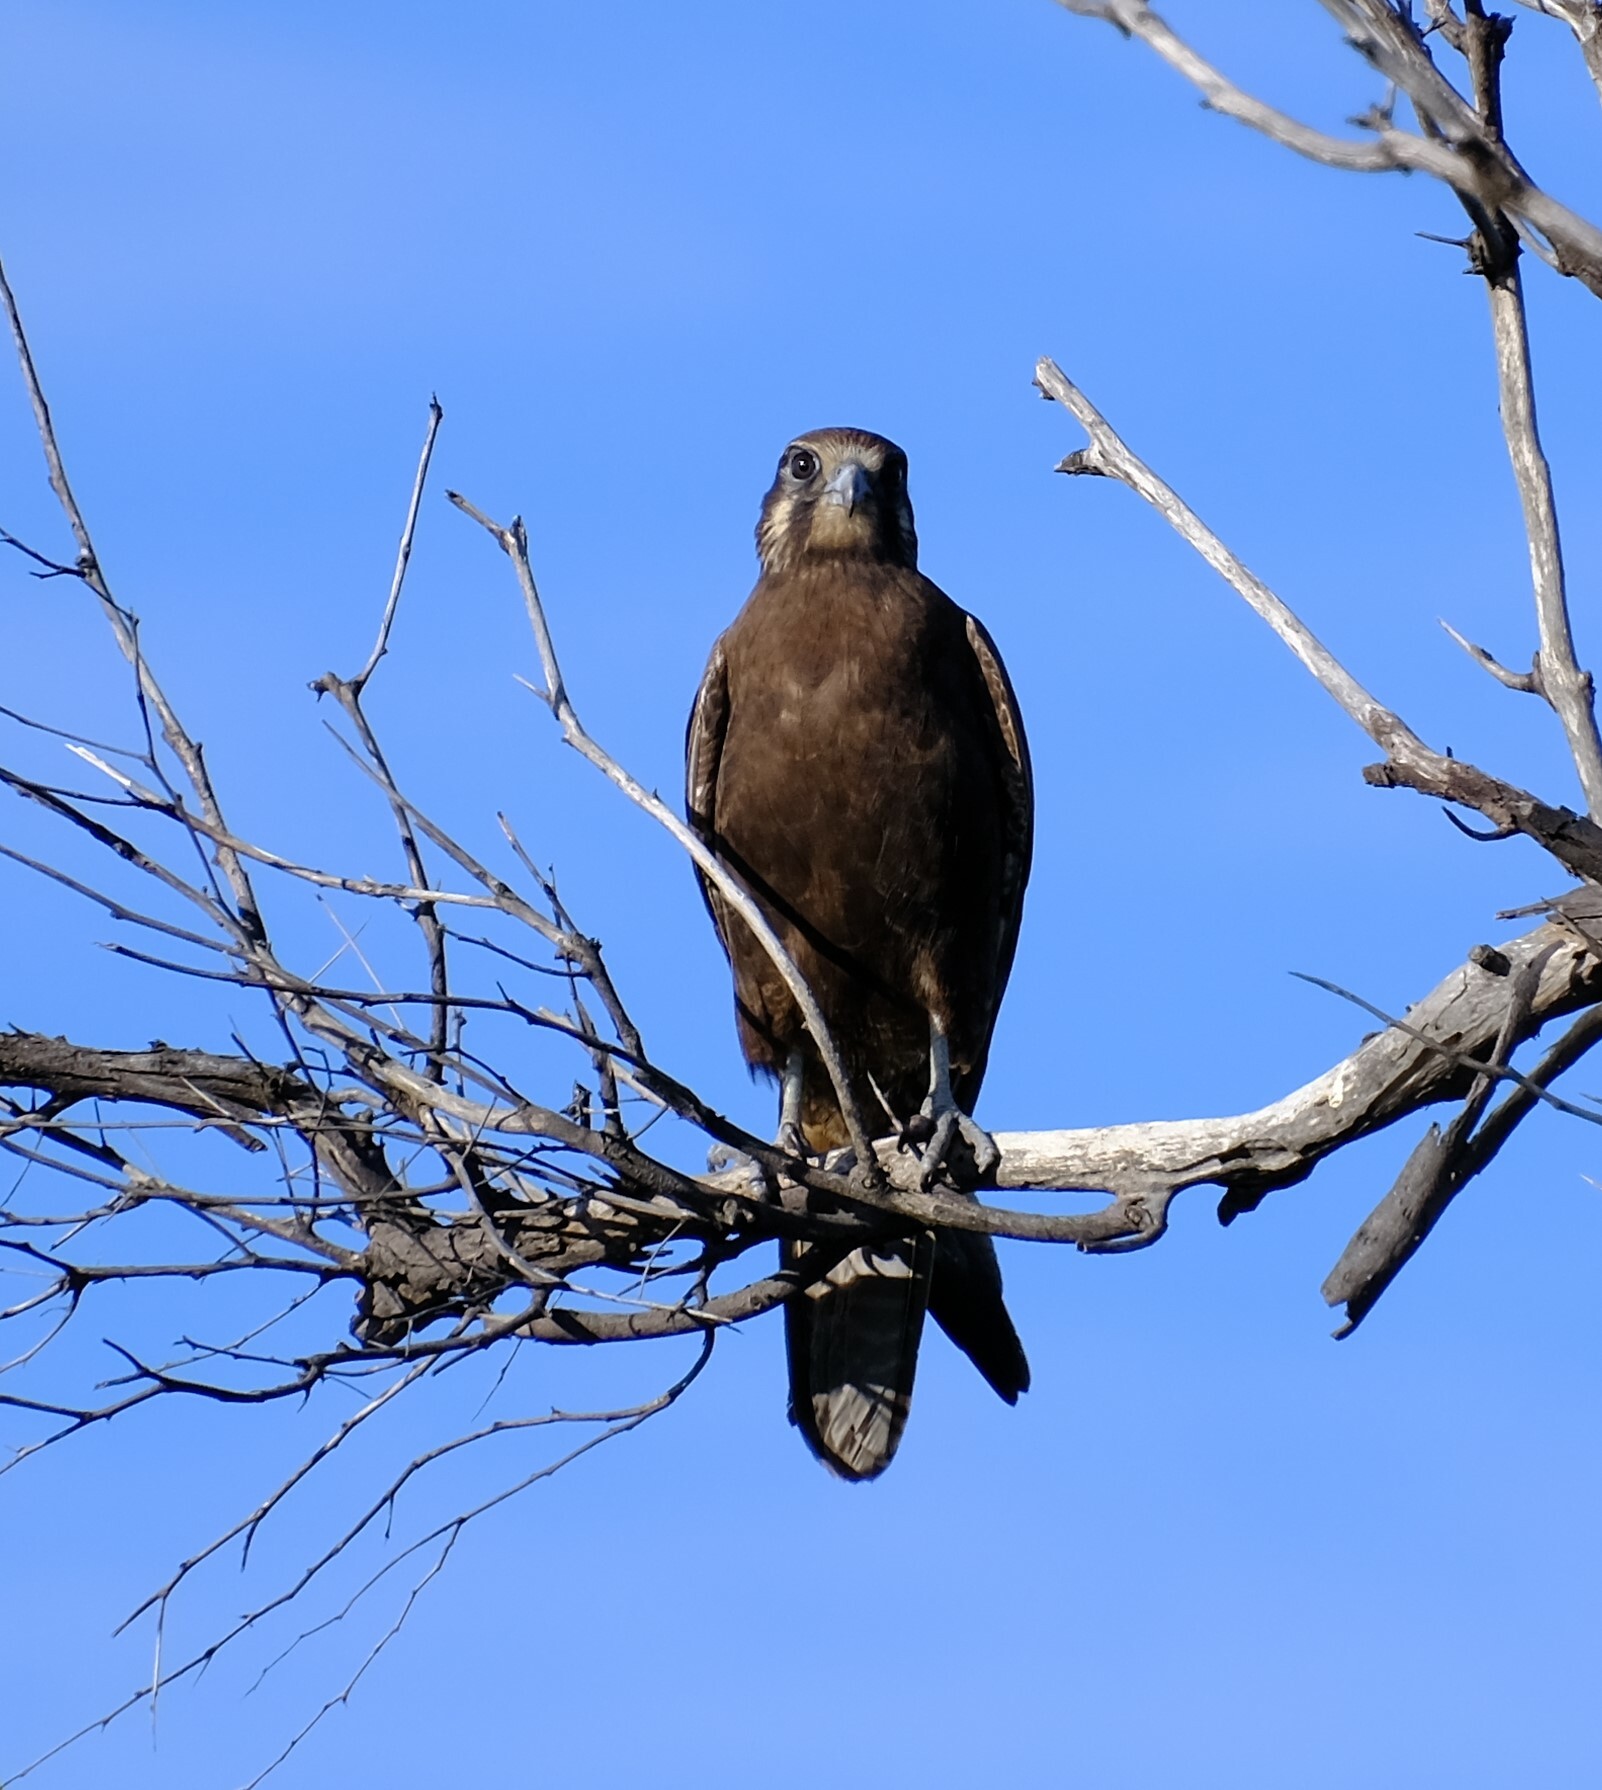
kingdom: Animalia
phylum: Chordata
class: Aves
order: Falconiformes
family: Falconidae
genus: Falco
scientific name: Falco berigora
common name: Brown falcon
